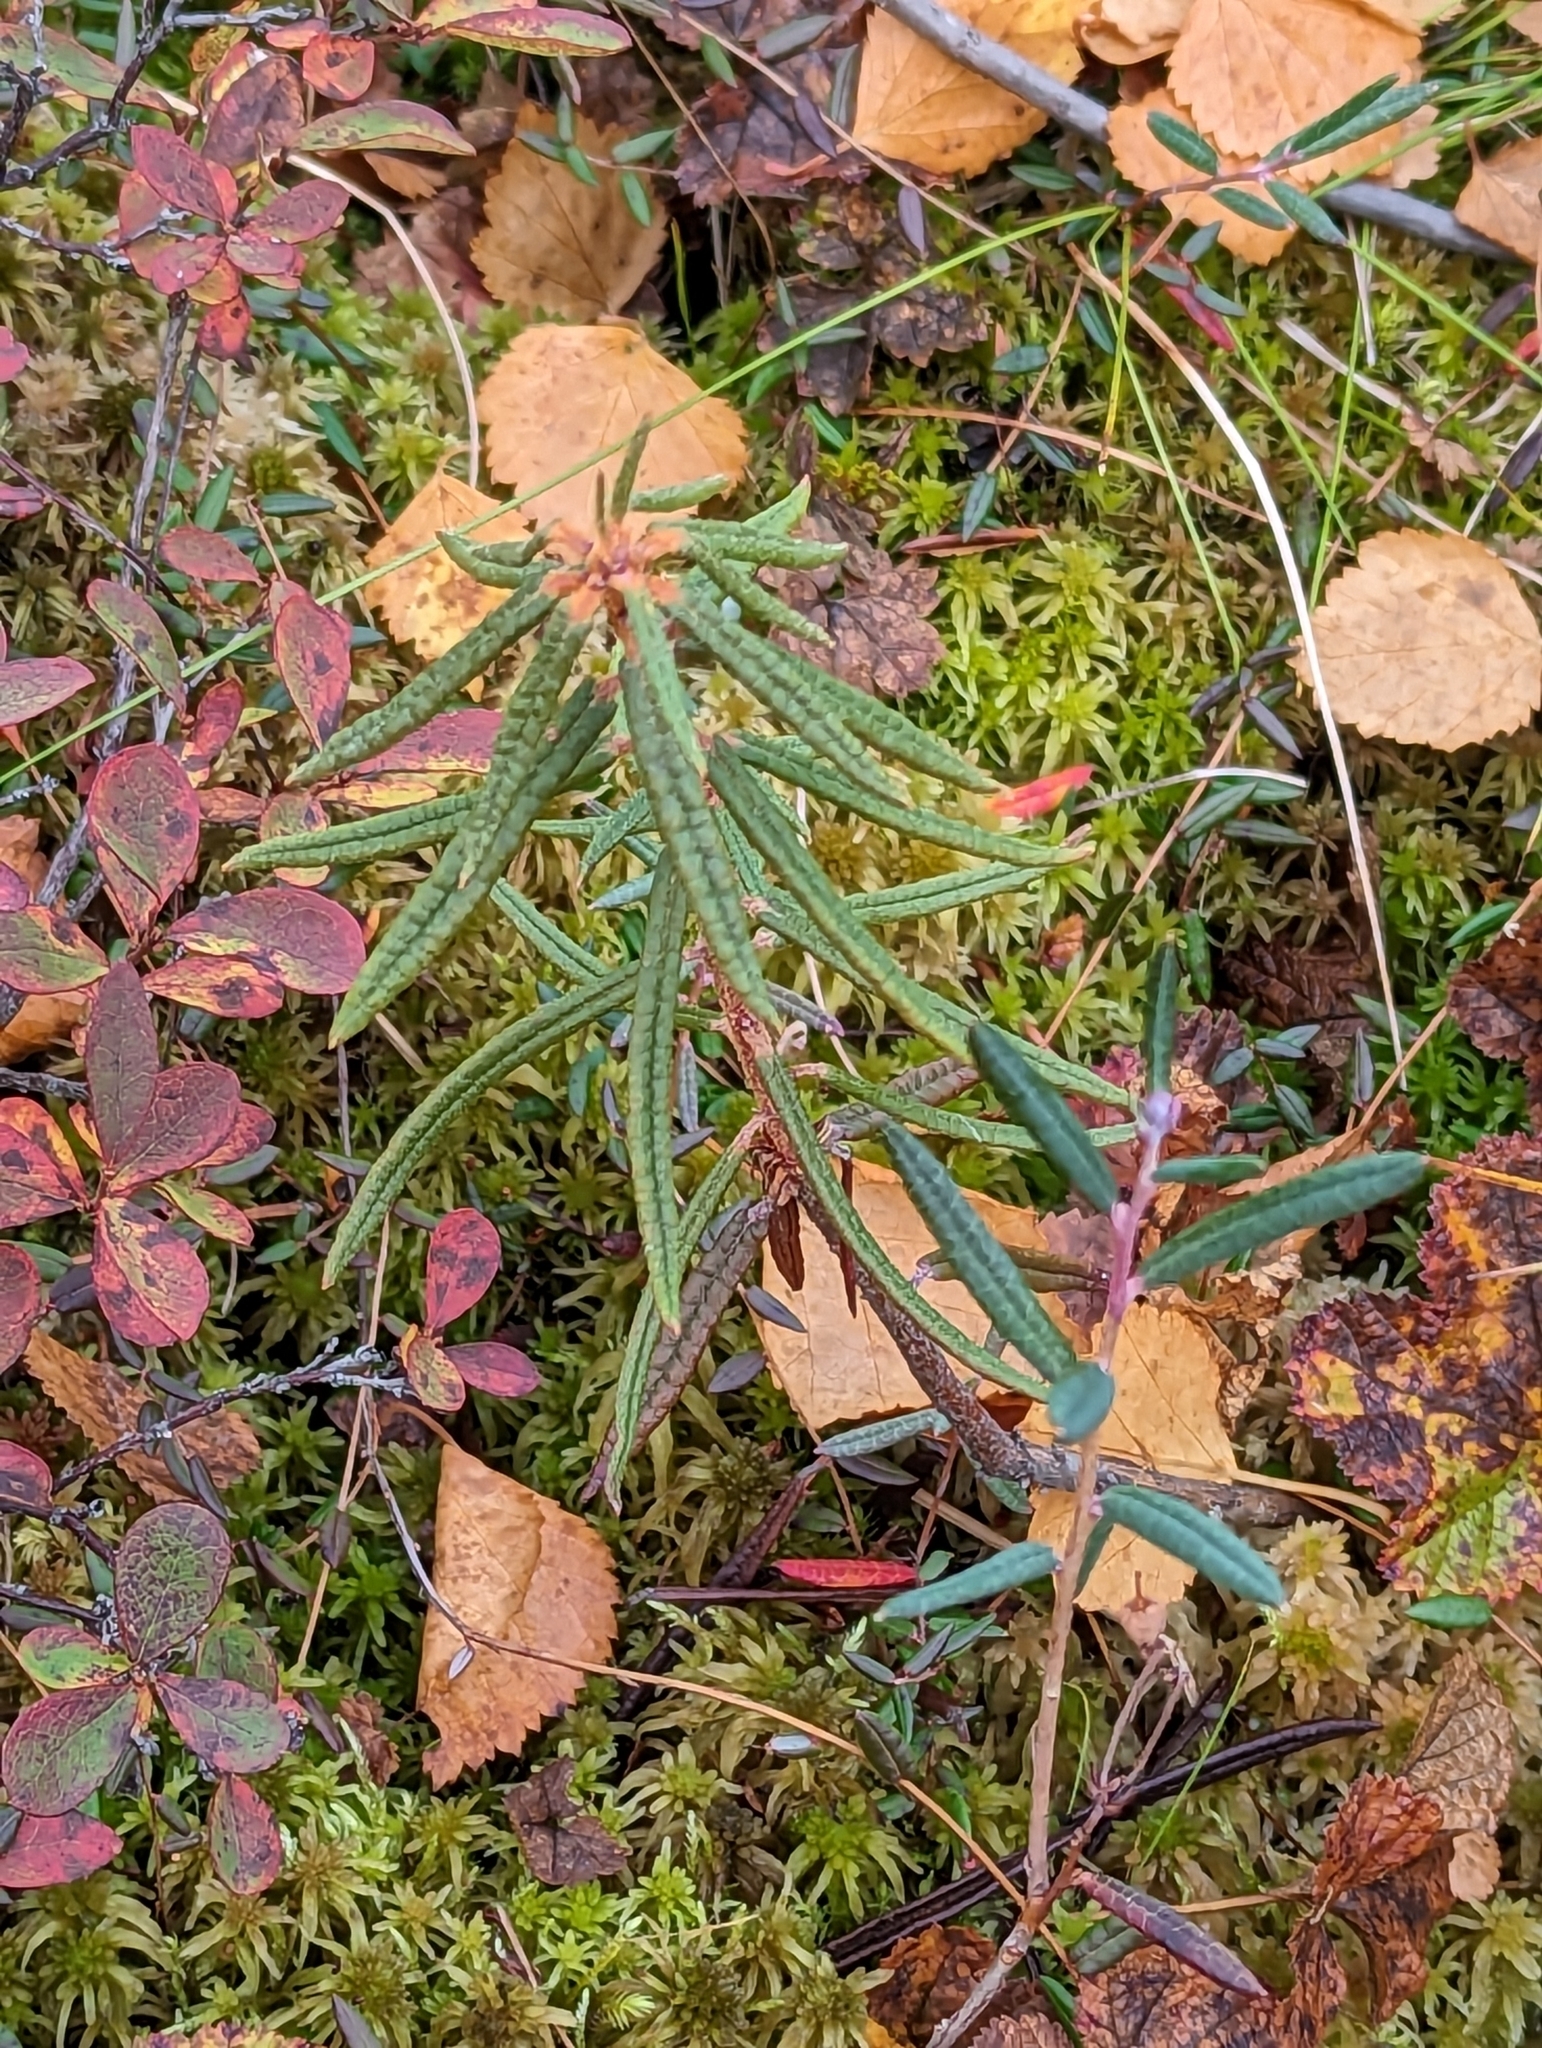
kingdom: Plantae
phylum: Tracheophyta
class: Magnoliopsida
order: Ericales
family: Ericaceae
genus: Rhododendron
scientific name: Rhododendron tomentosum
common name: Marsh labrador tea
